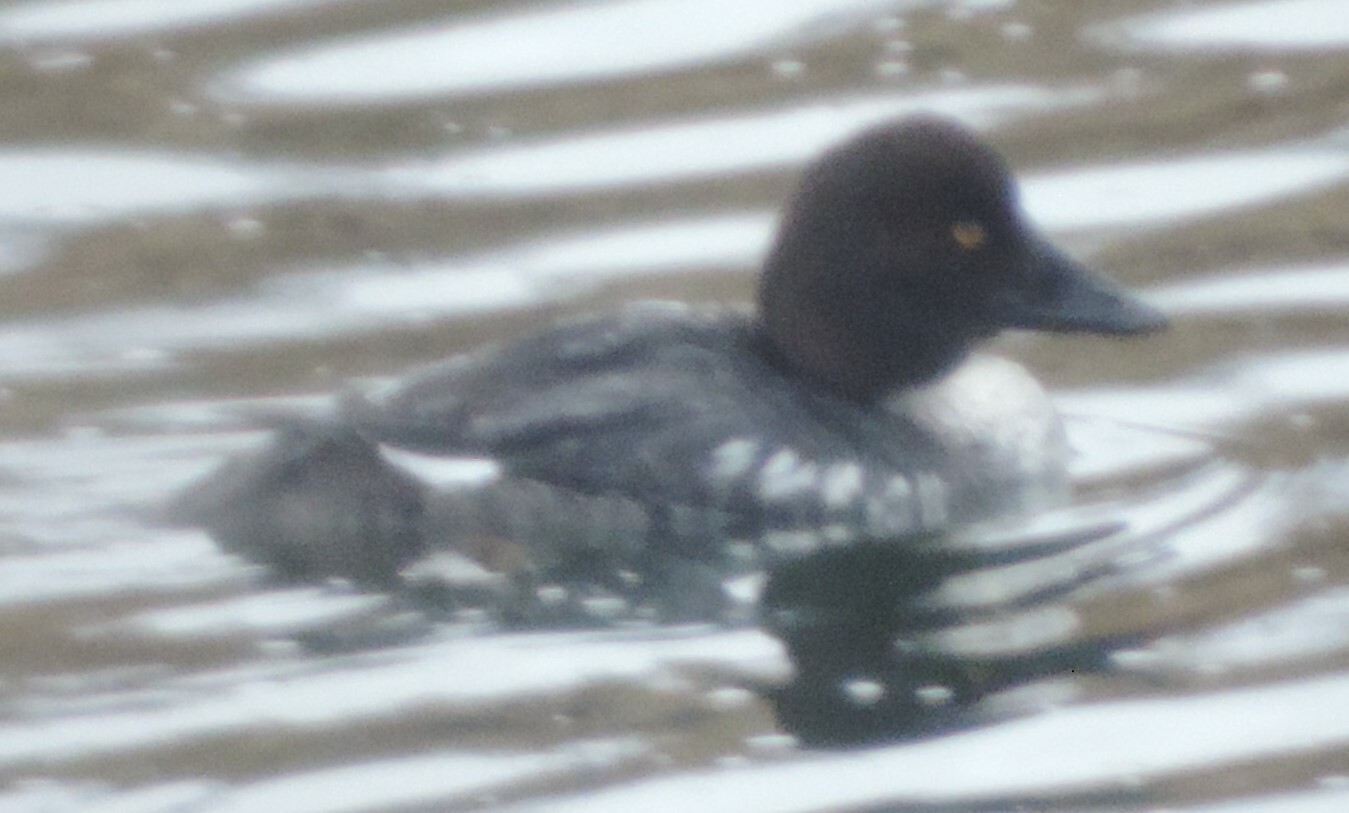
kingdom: Animalia
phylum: Chordata
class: Aves
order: Anseriformes
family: Anatidae
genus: Bucephala
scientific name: Bucephala clangula
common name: Common goldeneye
